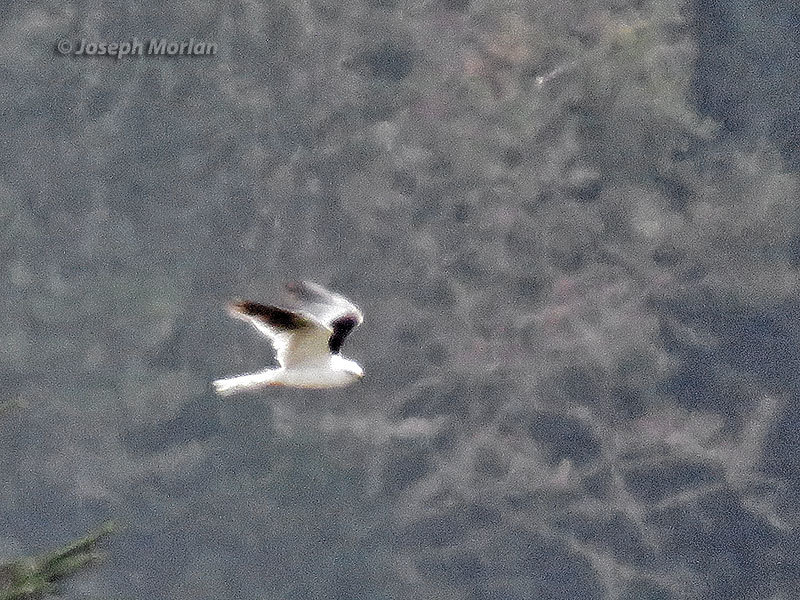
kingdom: Animalia
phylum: Chordata
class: Aves
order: Accipitriformes
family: Accipitridae
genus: Elanus
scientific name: Elanus leucurus
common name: White-tailed kite
